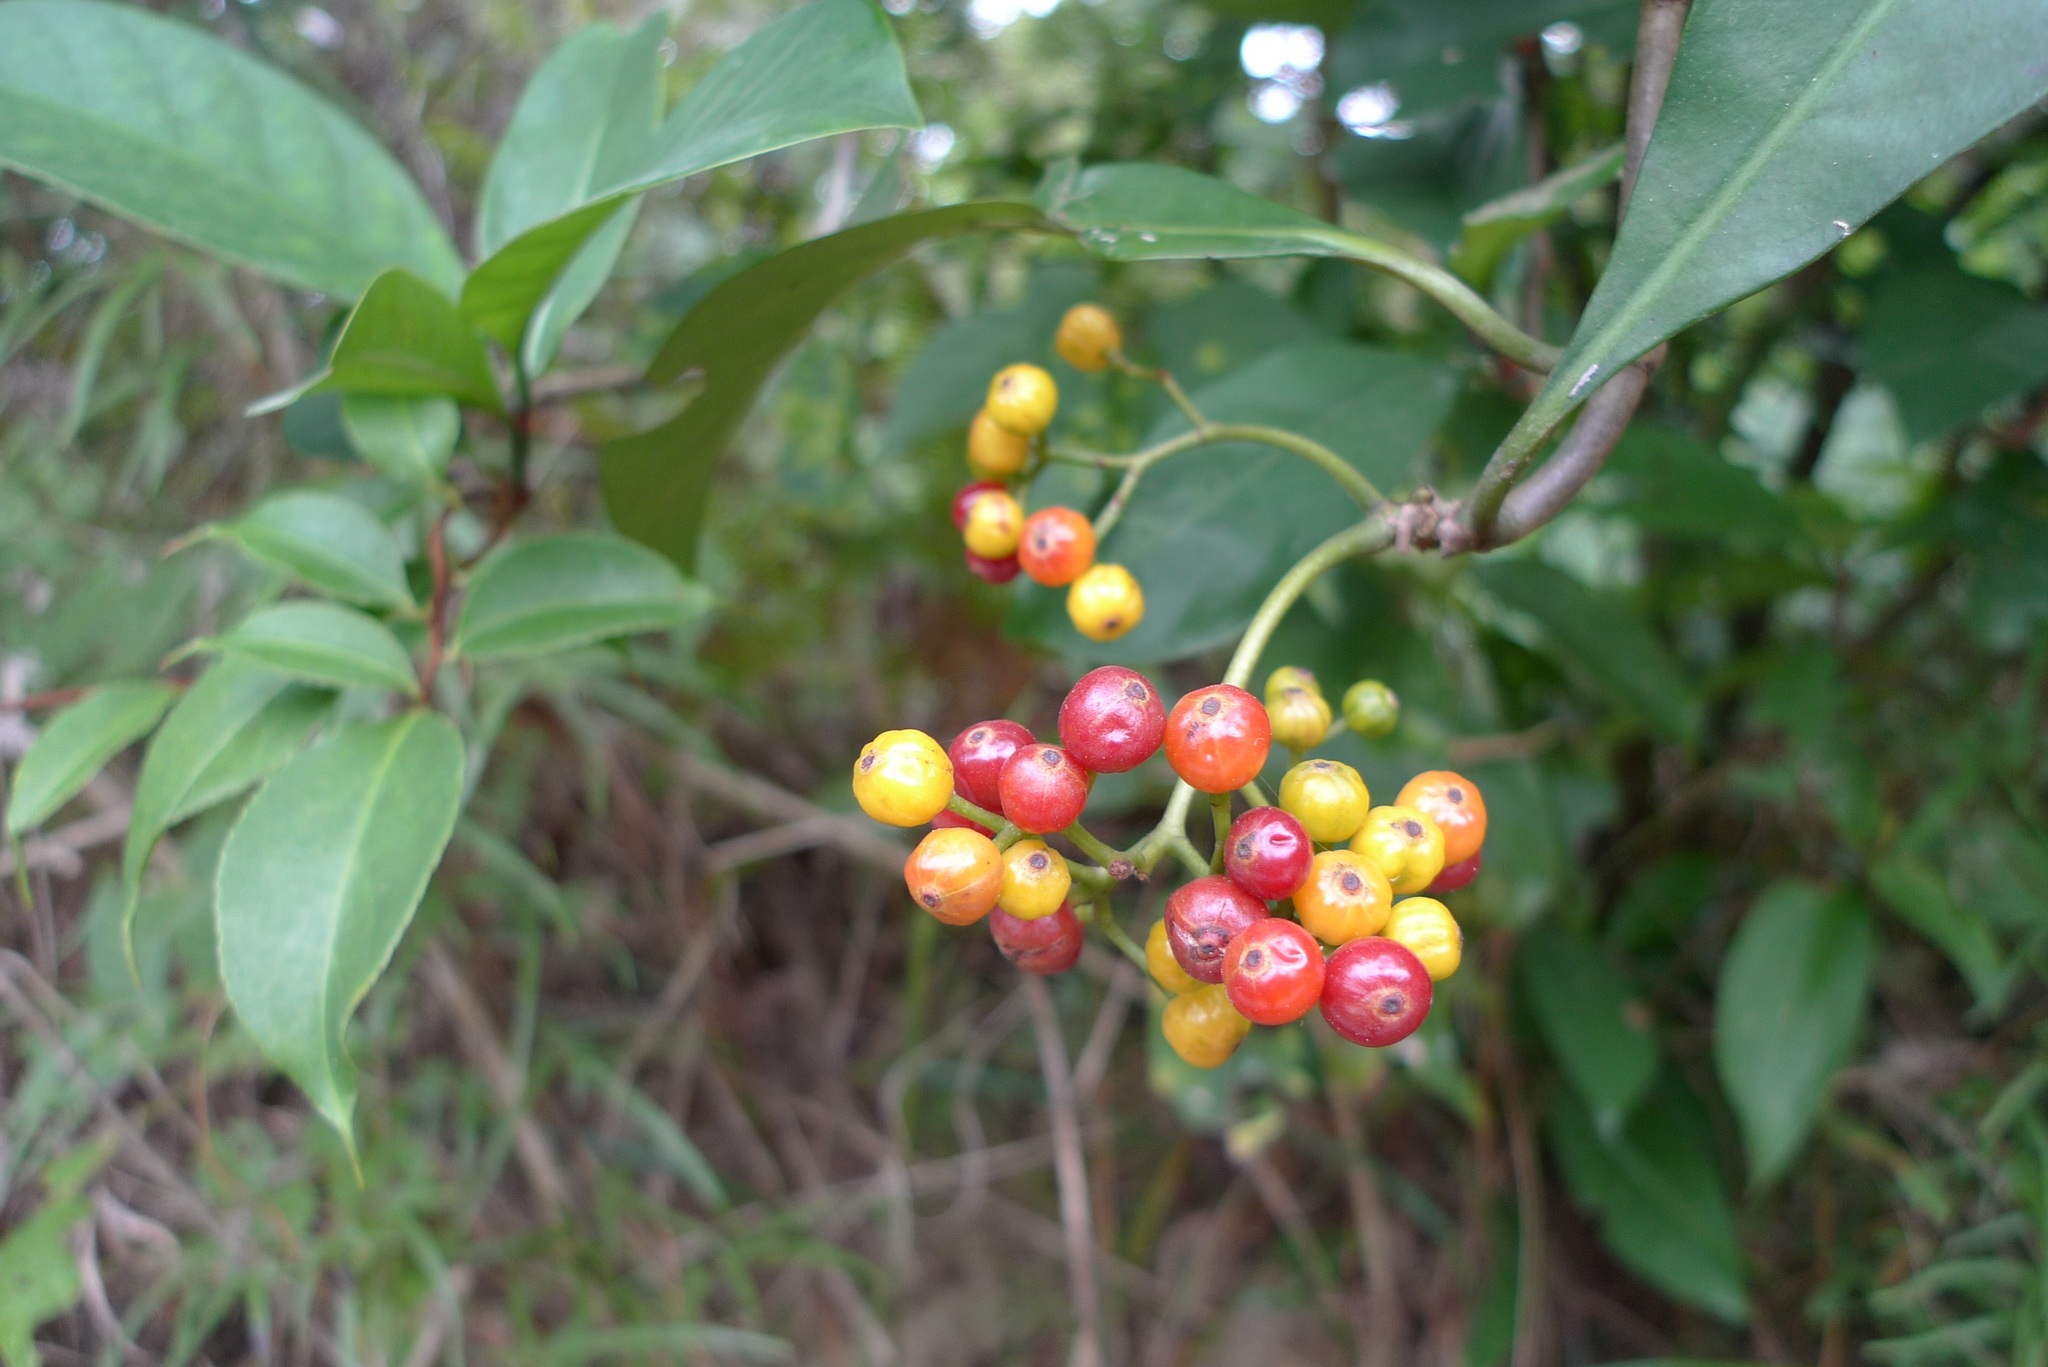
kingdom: Plantae
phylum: Tracheophyta
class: Magnoliopsida
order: Gentianales
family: Rubiaceae
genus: Psychotria
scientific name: Psychotria asiatica
